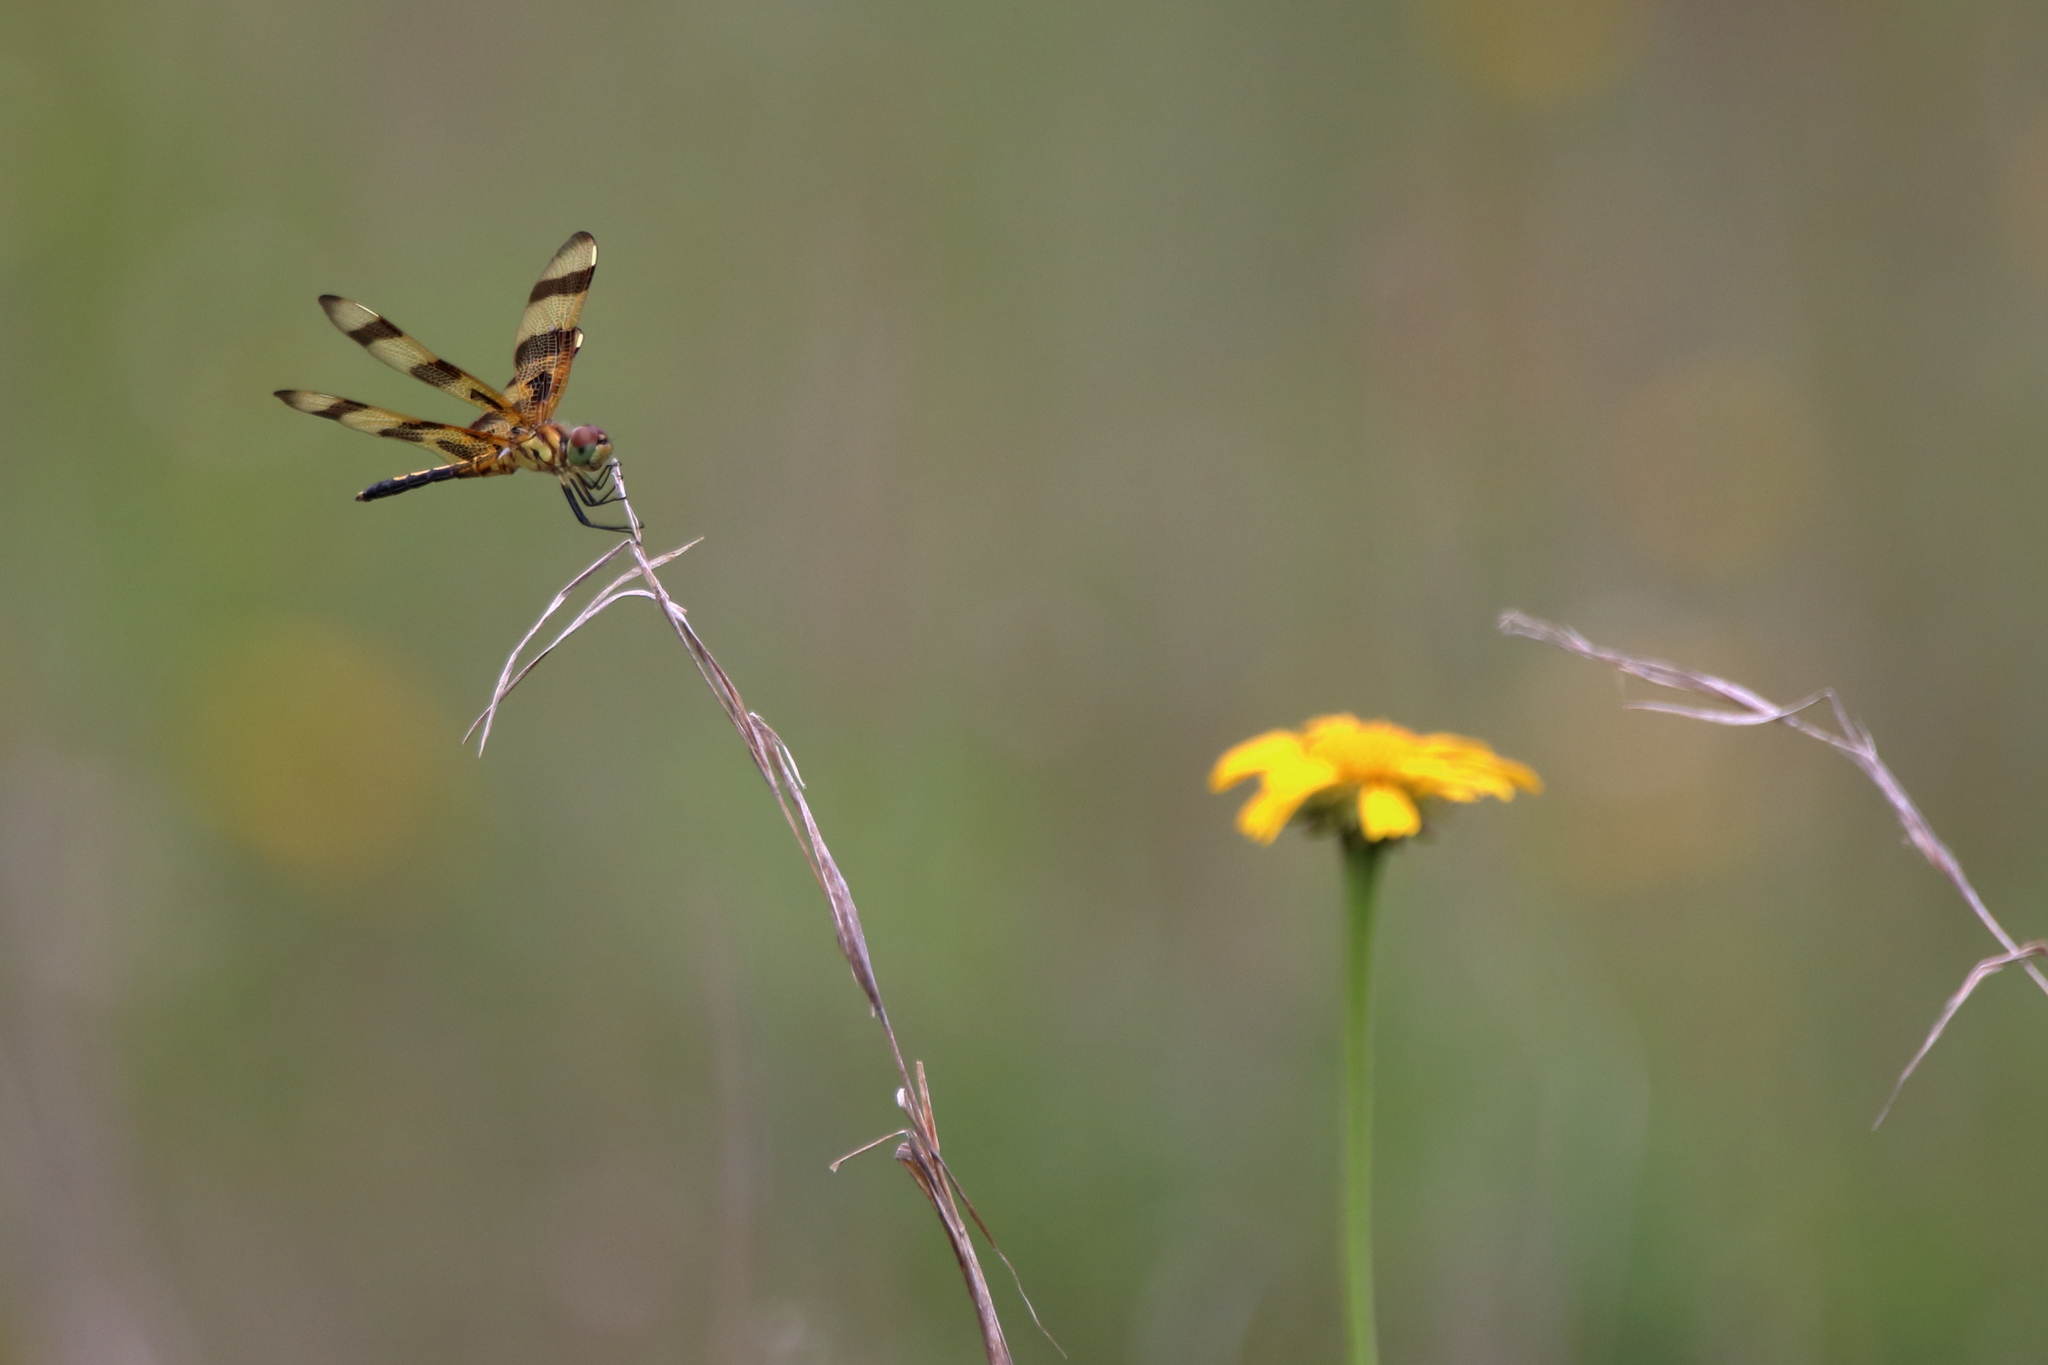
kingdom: Animalia
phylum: Arthropoda
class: Insecta
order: Odonata
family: Libellulidae
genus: Celithemis
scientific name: Celithemis eponina
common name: Halloween pennant
